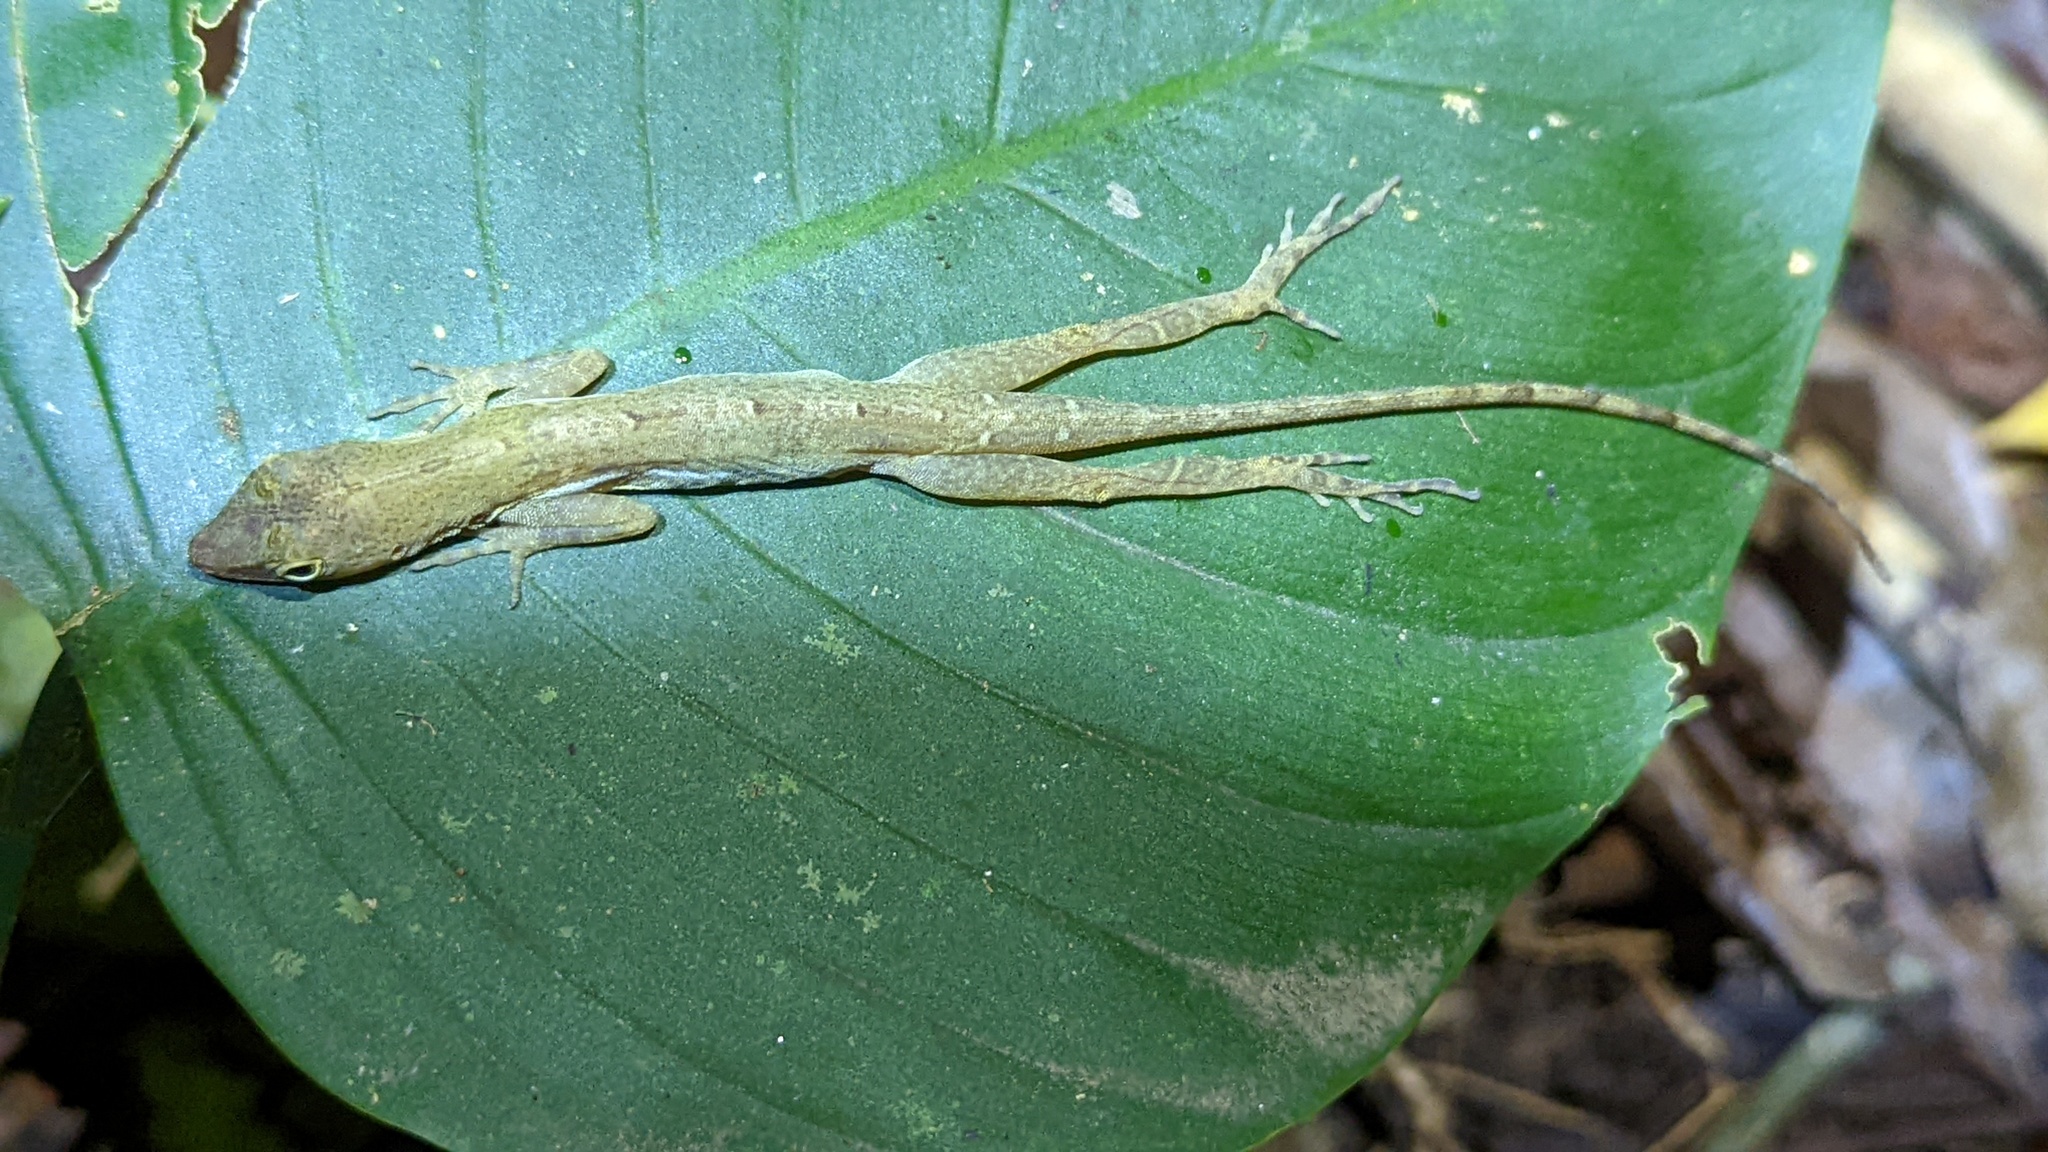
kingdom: Animalia
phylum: Chordata
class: Squamata
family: Dactyloidae
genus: Anolis
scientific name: Anolis limifrons
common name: Border anole
